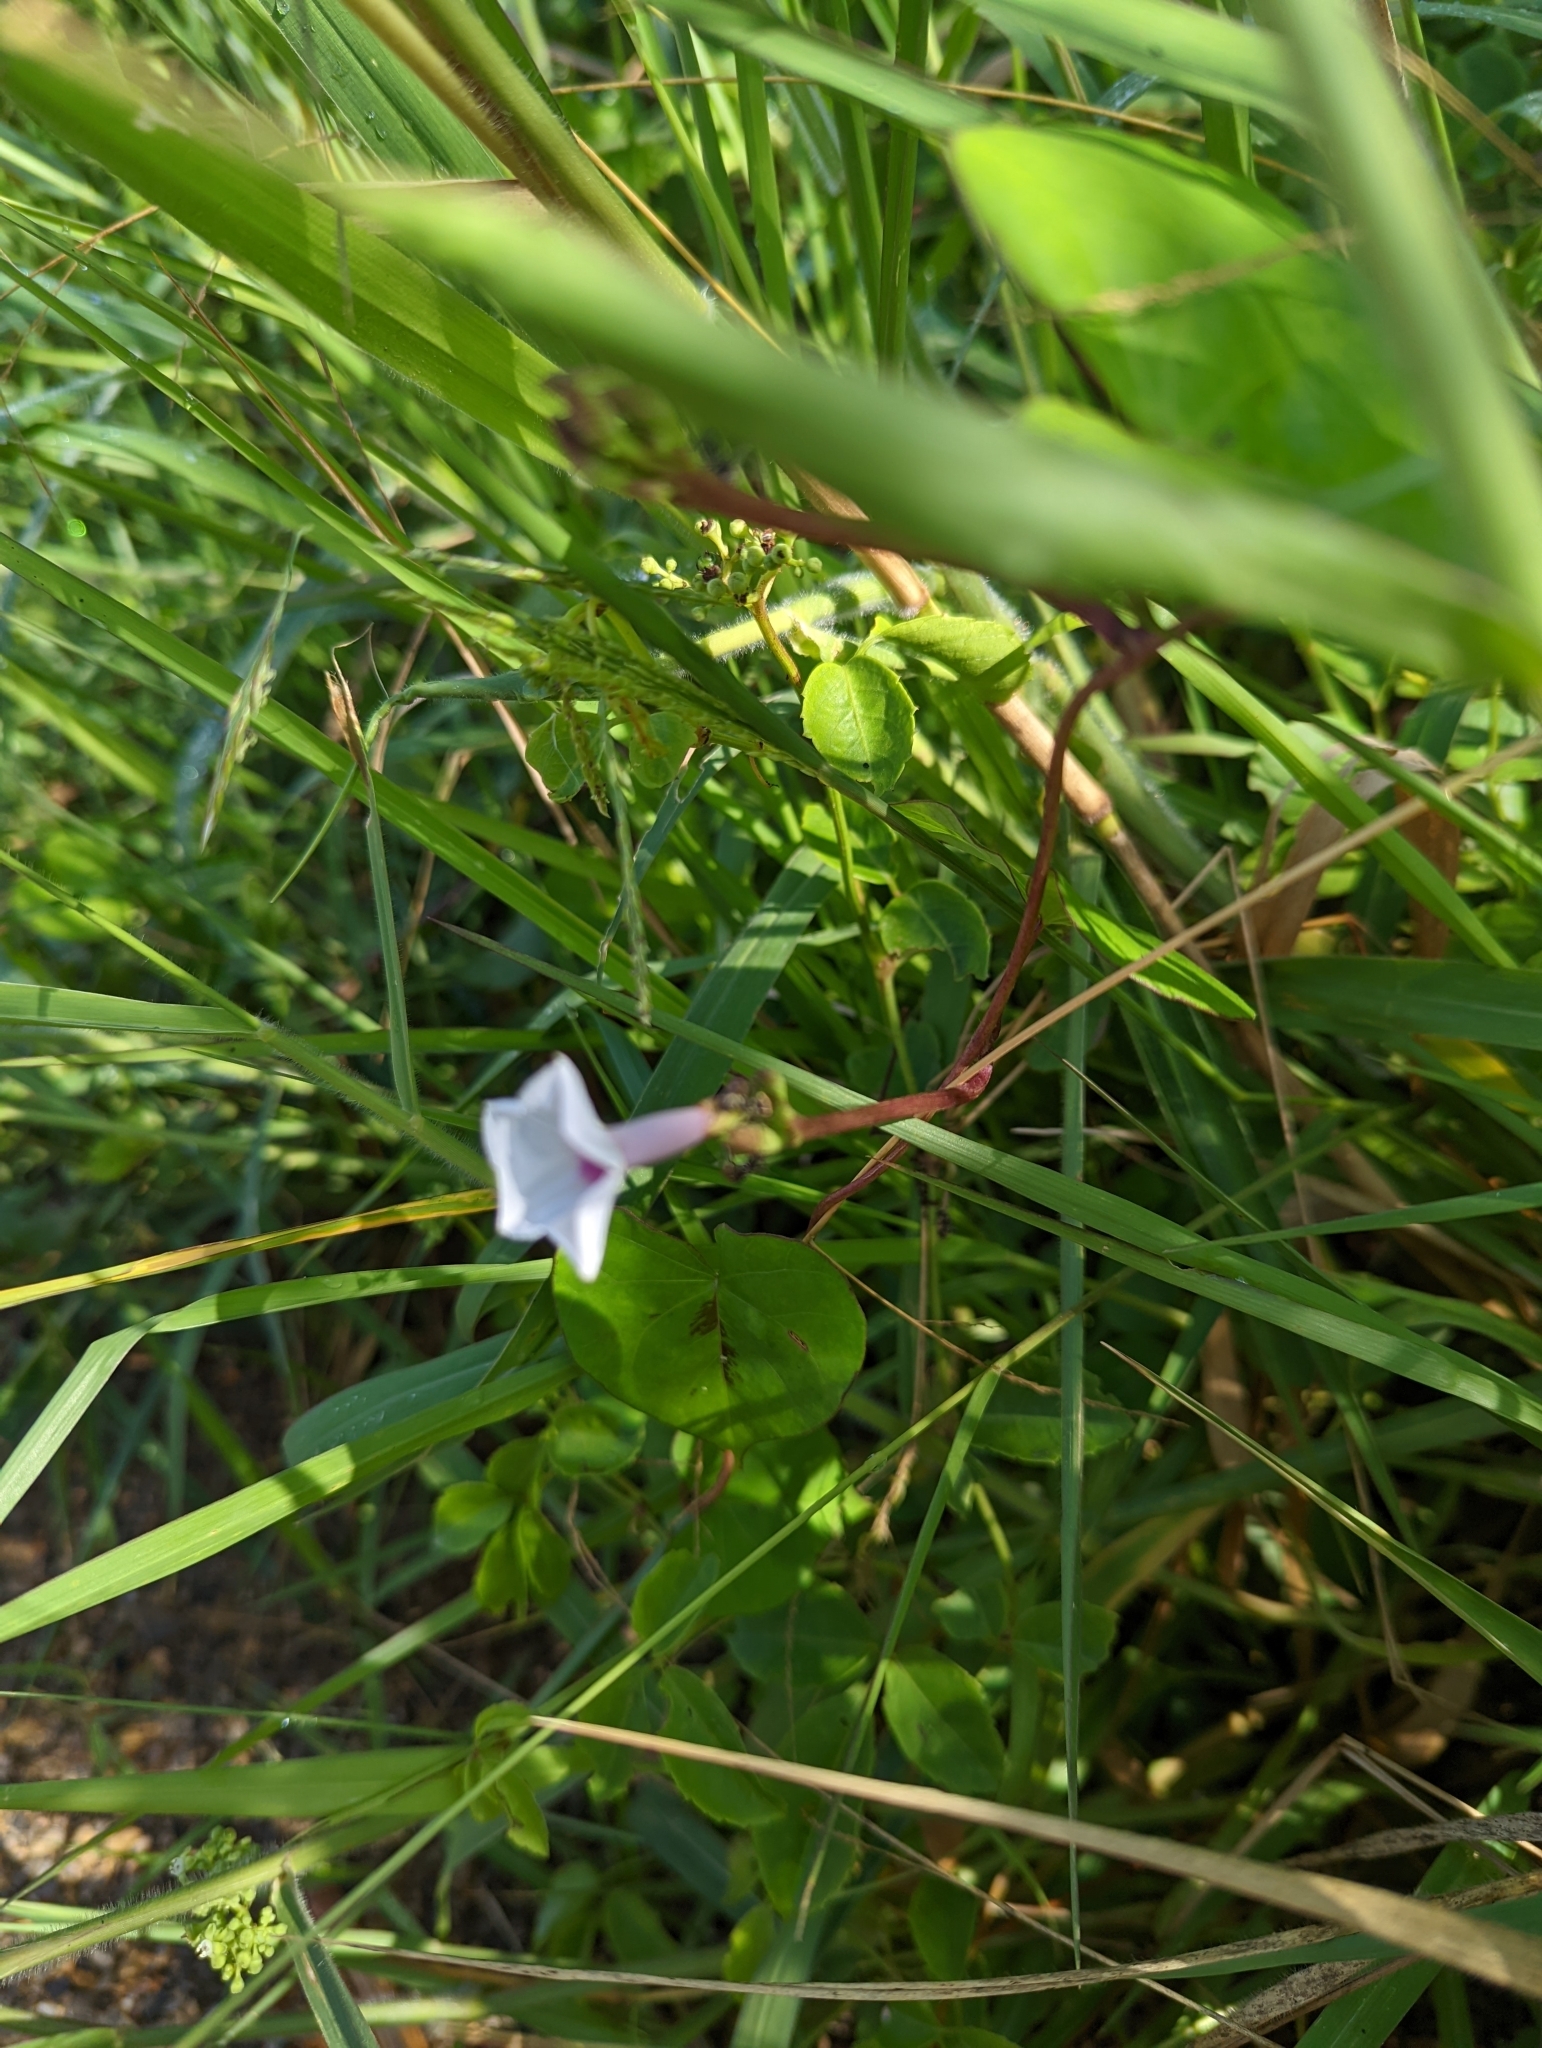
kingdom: Plantae
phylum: Tracheophyta
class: Magnoliopsida
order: Solanales
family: Convolvulaceae
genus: Ipomoea
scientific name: Ipomoea sagittifolia
